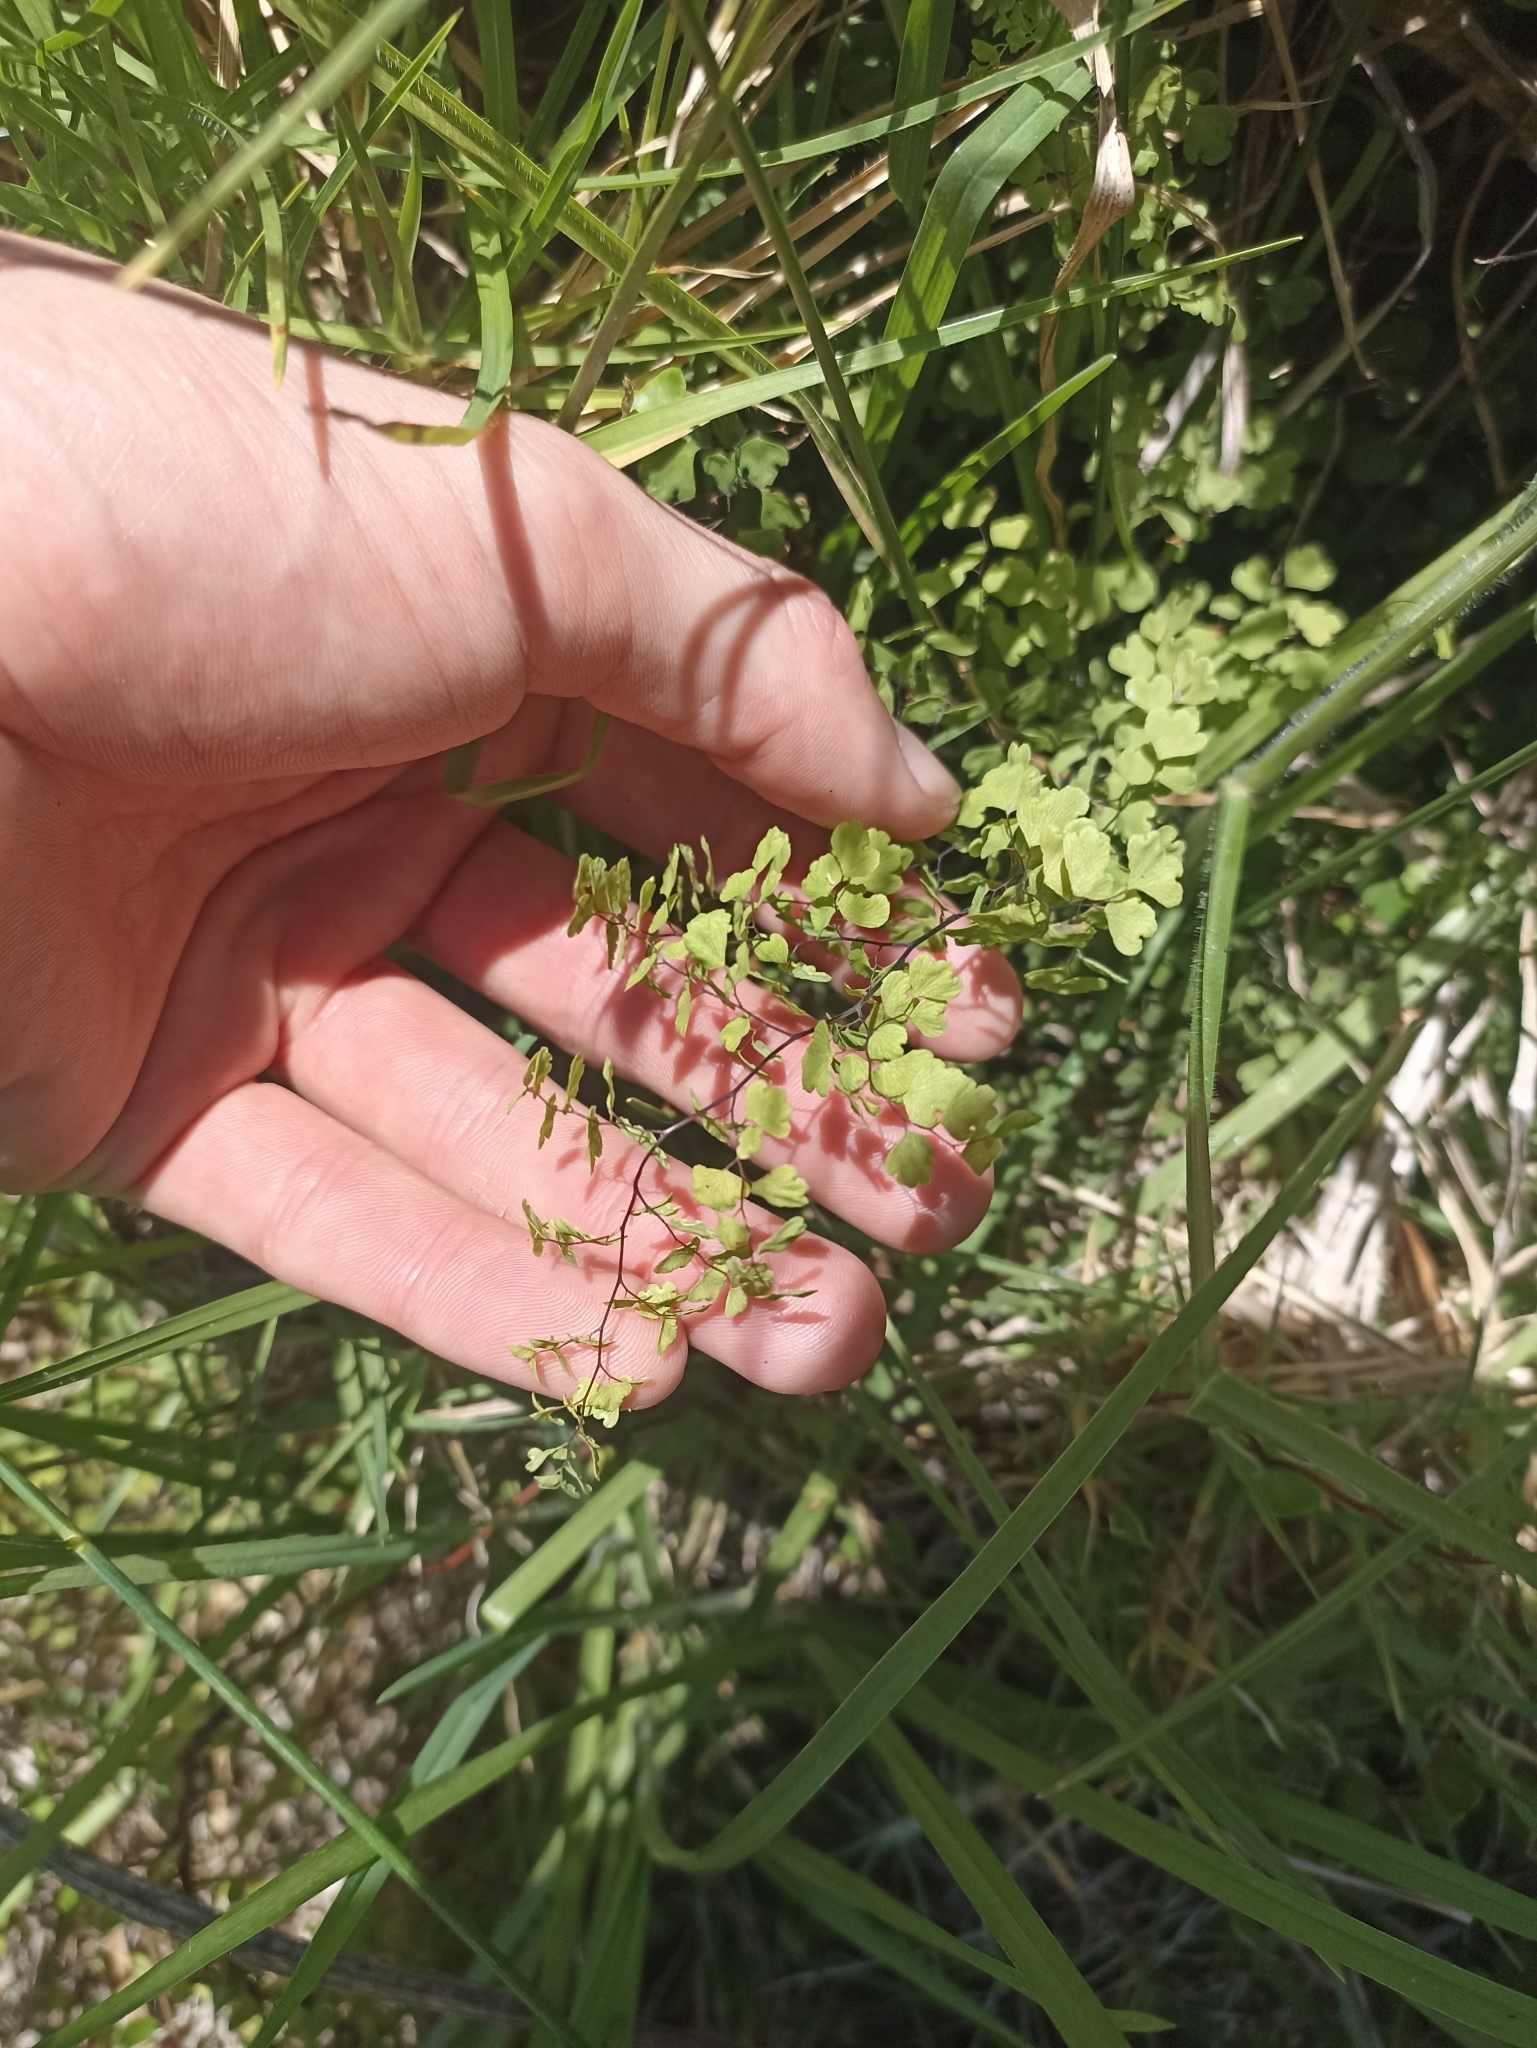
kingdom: Plantae
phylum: Tracheophyta
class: Polypodiopsida
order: Polypodiales
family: Pteridaceae
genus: Adiantum
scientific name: Adiantum aethiopicum
